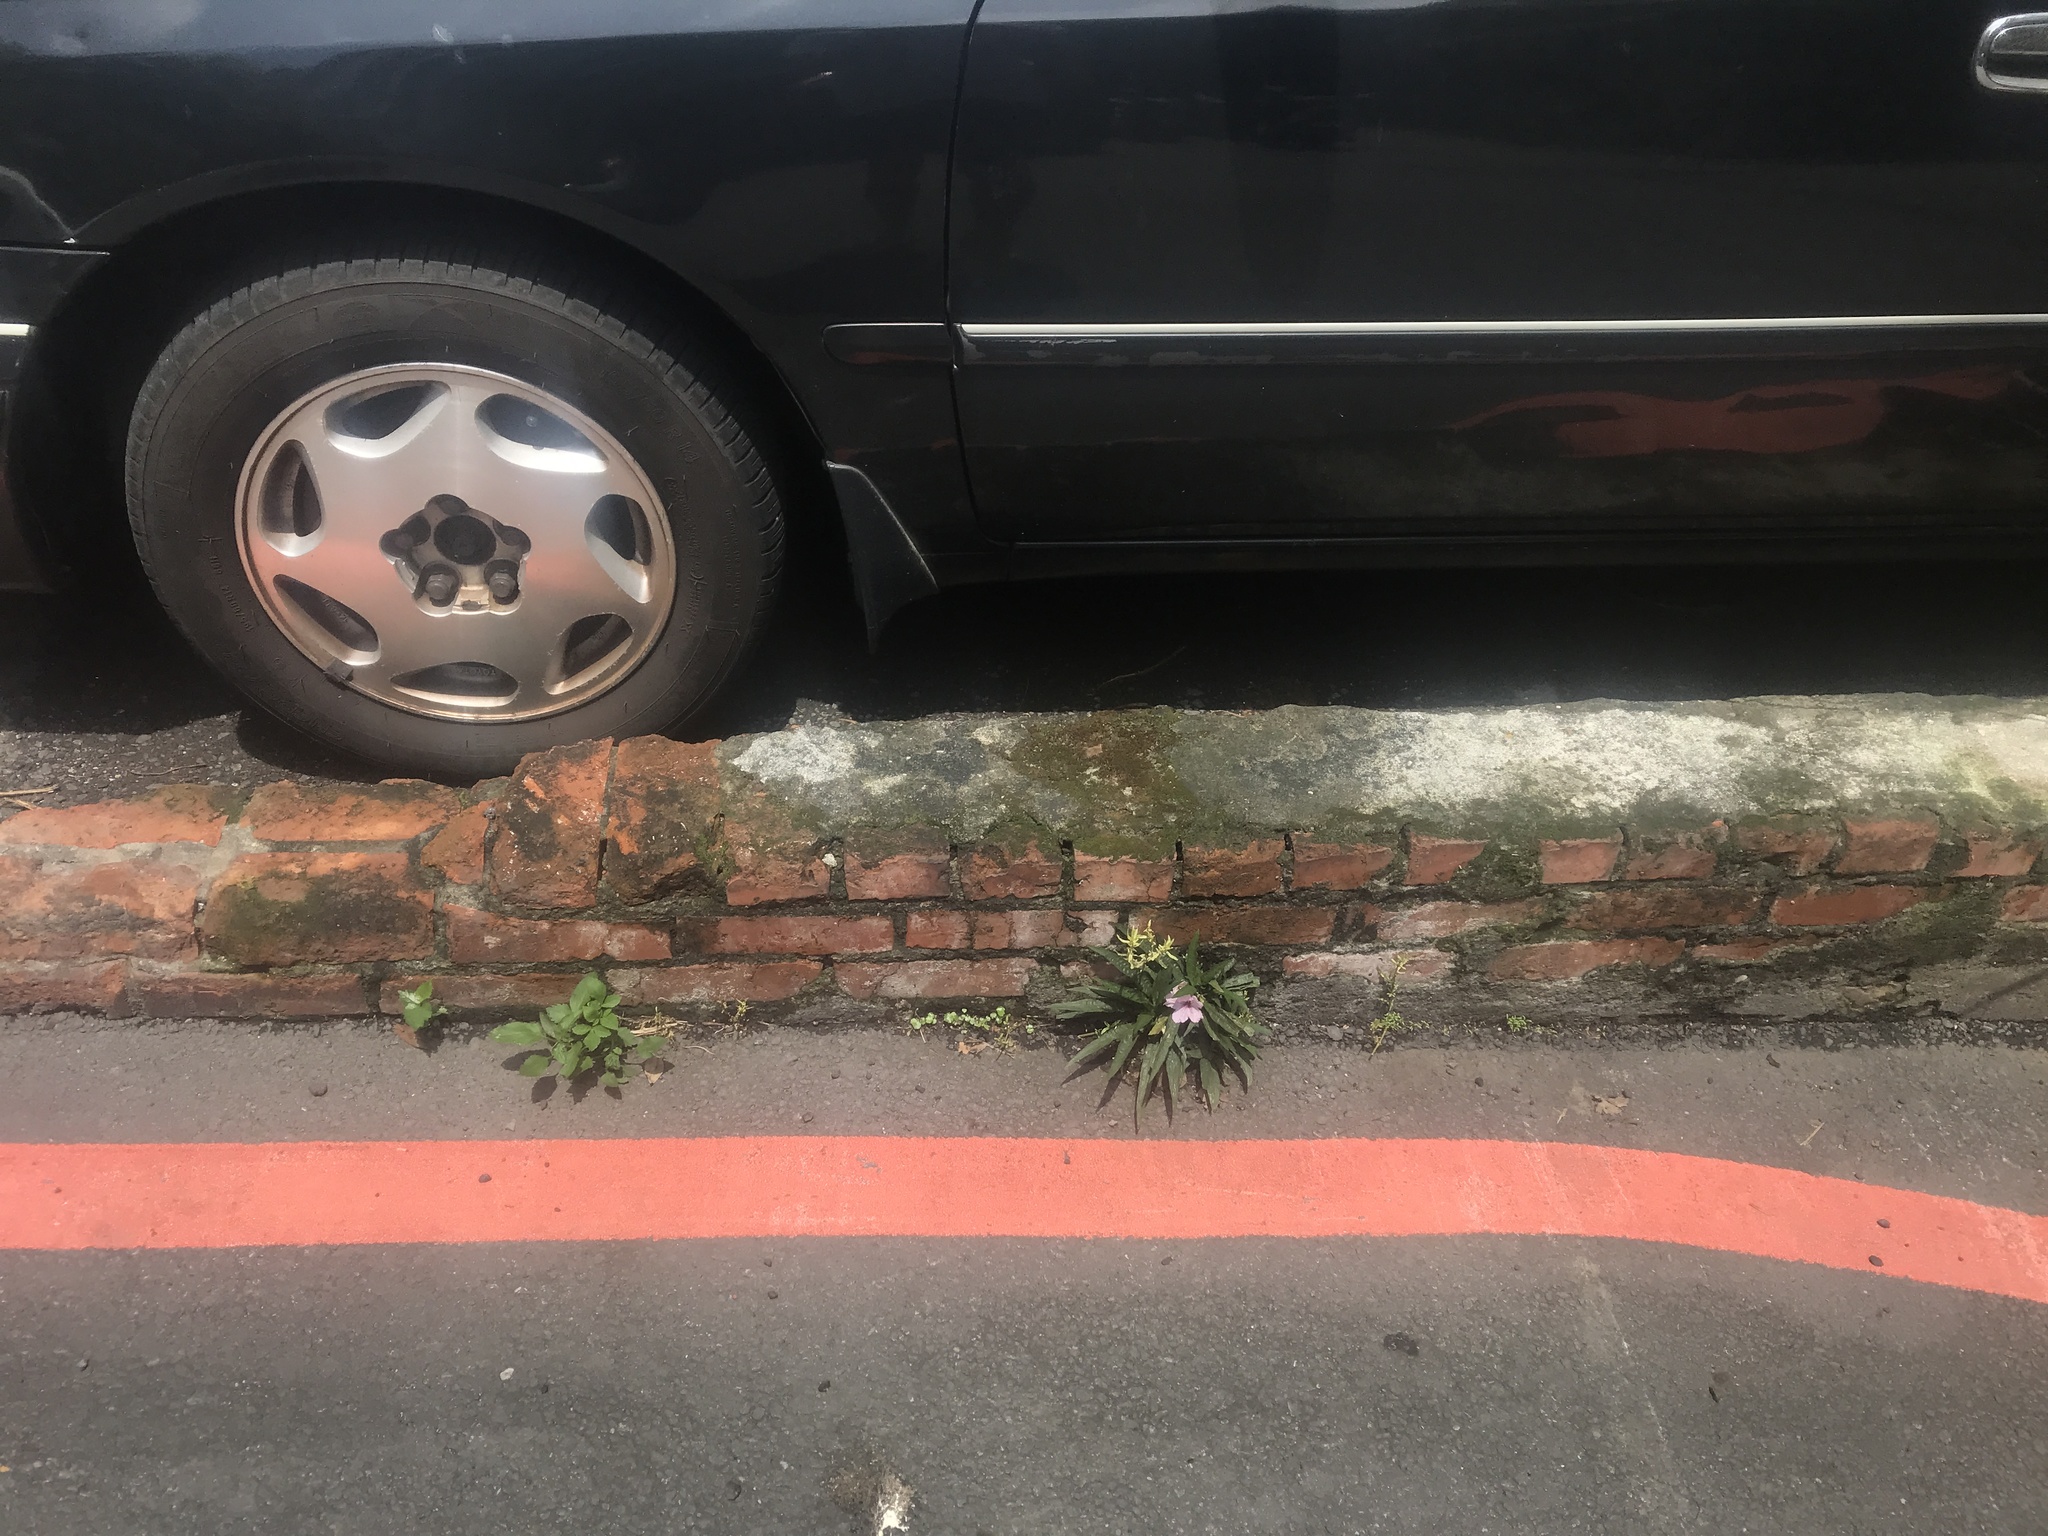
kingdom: Plantae
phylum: Tracheophyta
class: Magnoliopsida
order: Lamiales
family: Acanthaceae
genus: Ruellia
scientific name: Ruellia simplex
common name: Softseed wild petunia
